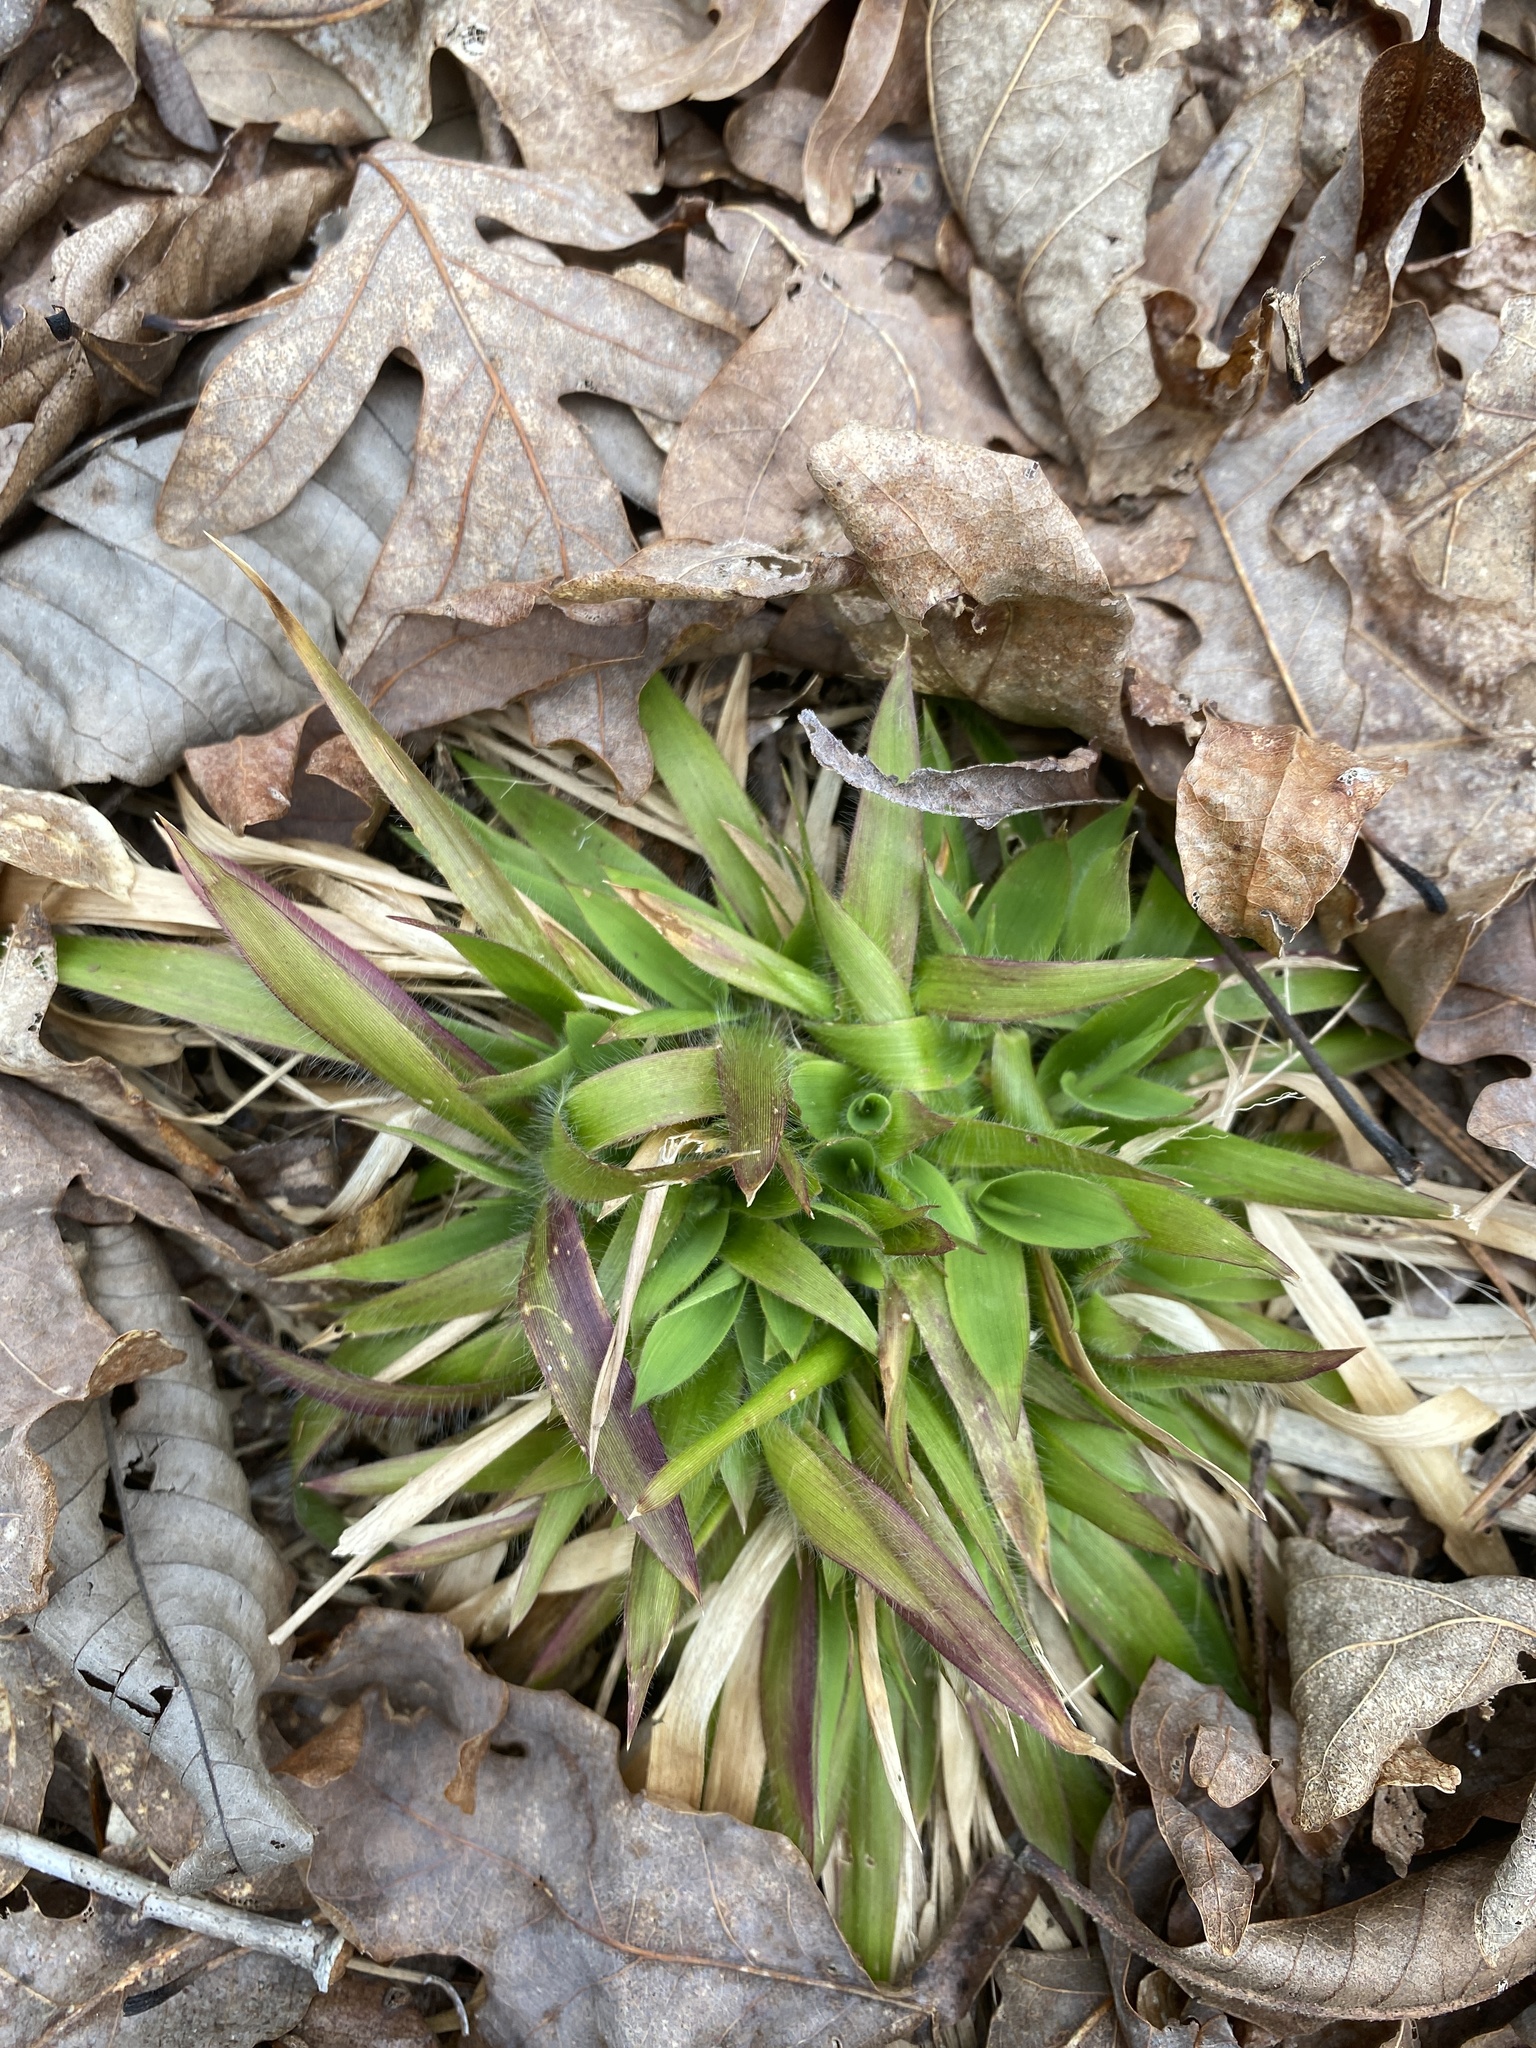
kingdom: Plantae
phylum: Tracheophyta
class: Liliopsida
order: Poales
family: Poaceae
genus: Dichanthelium
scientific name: Dichanthelium laxiflorum
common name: Soft-tuft panic grass
